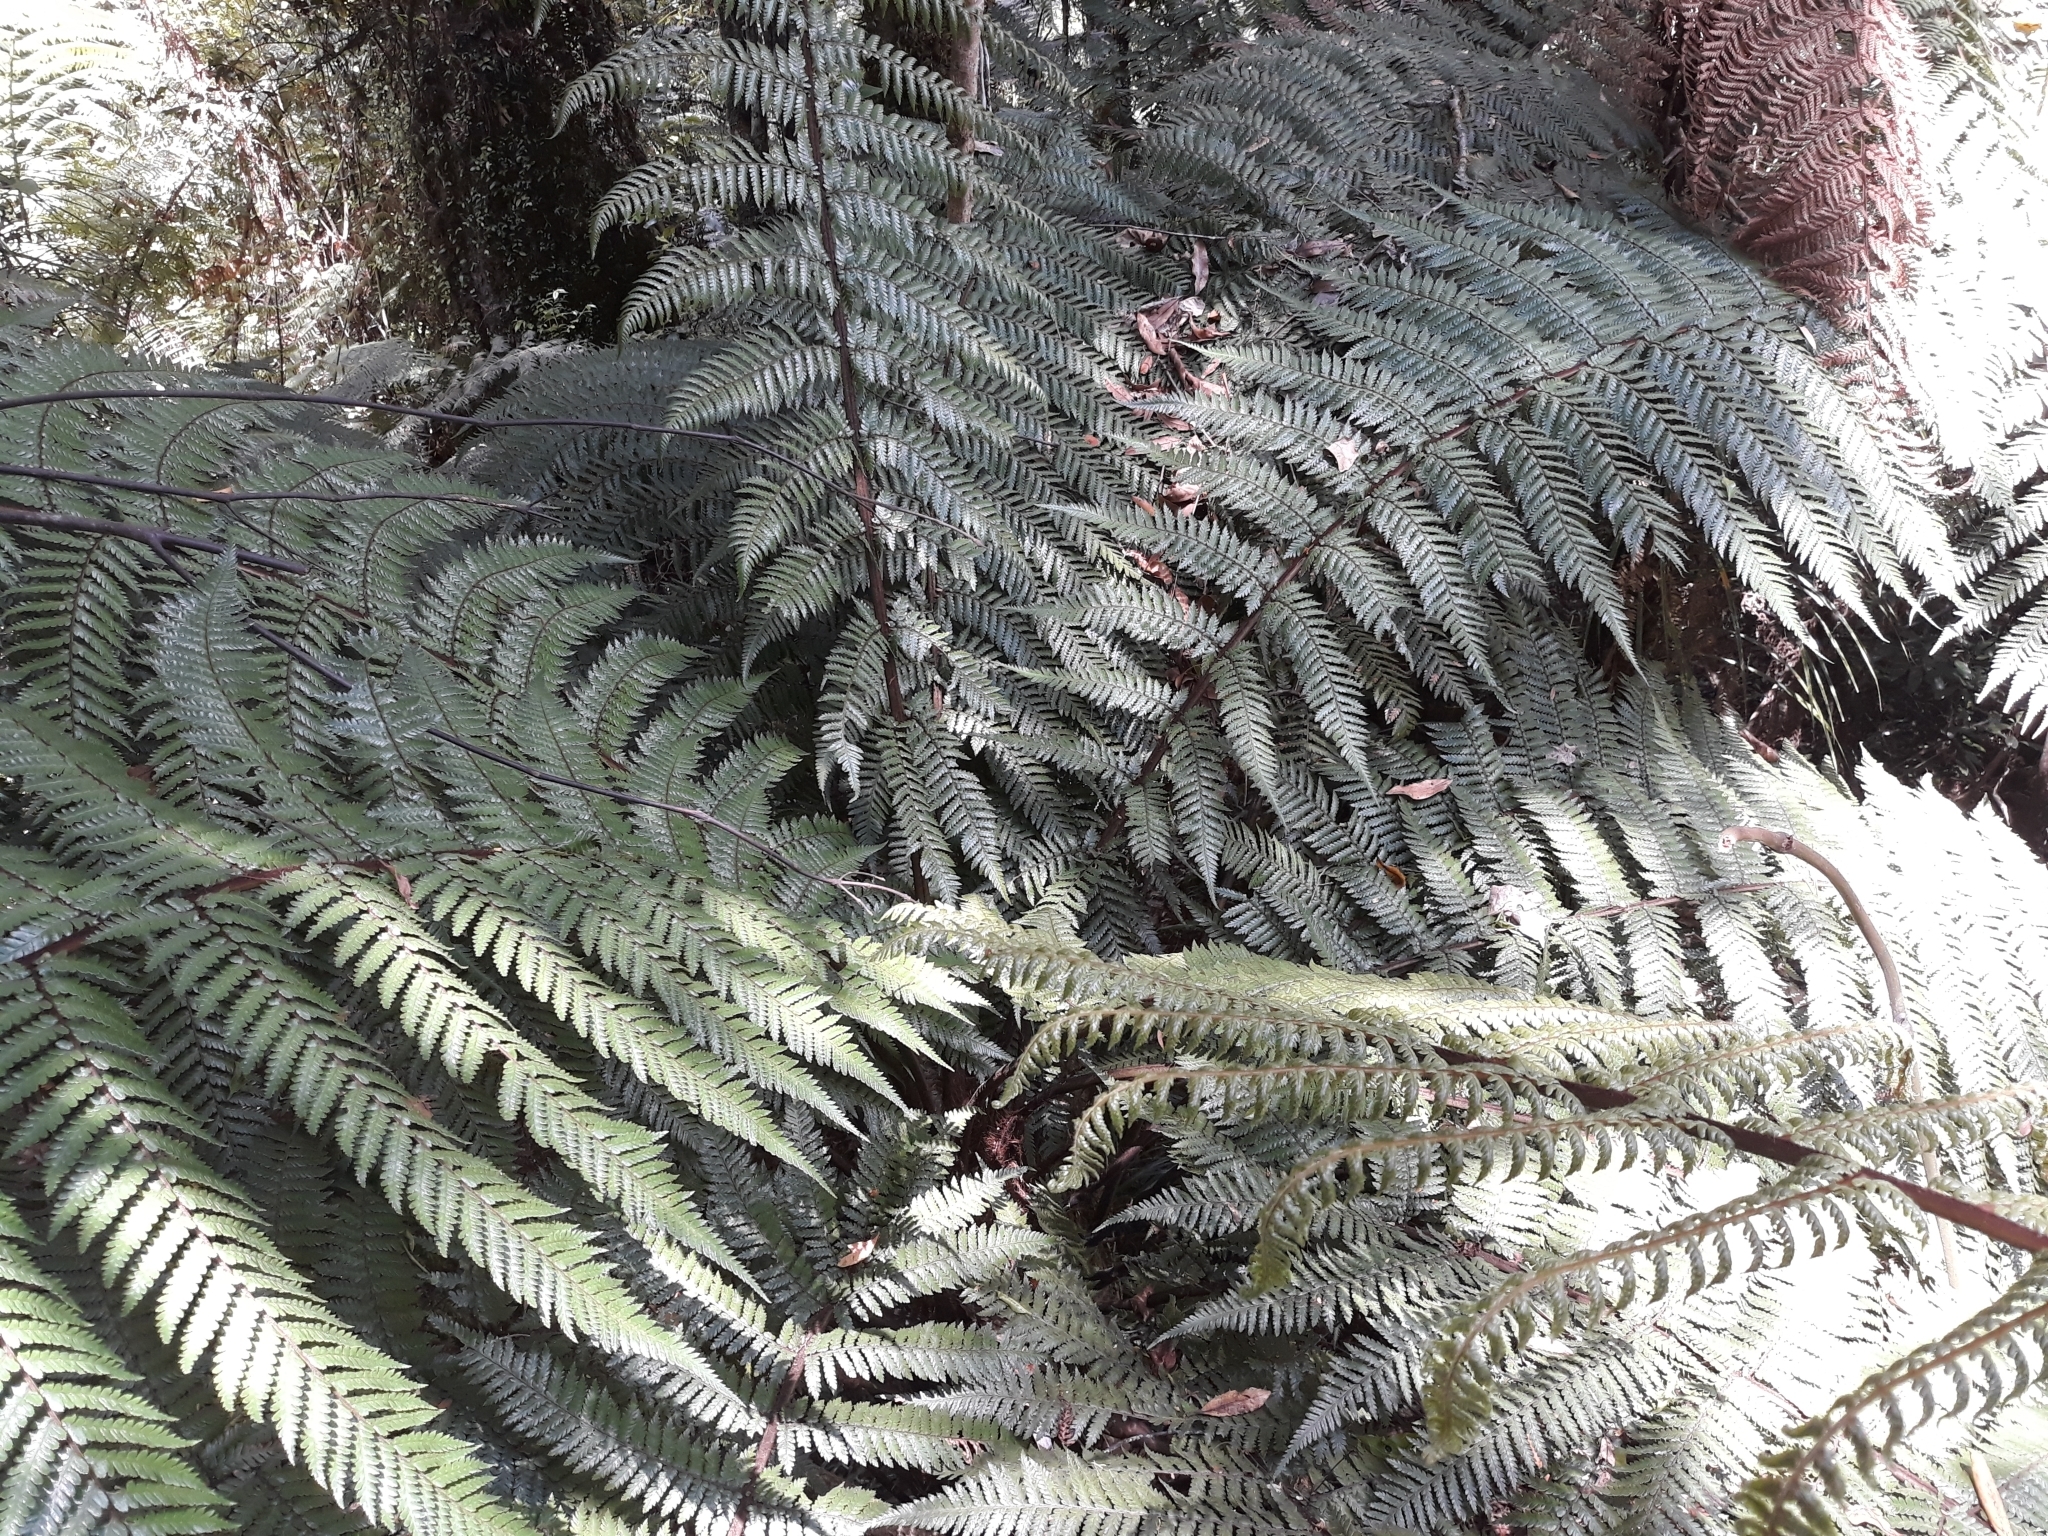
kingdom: Plantae
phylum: Tracheophyta
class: Polypodiopsida
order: Cyatheales
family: Dicksoniaceae
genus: Dicksonia
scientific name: Dicksonia squarrosa
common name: Hard treefern
